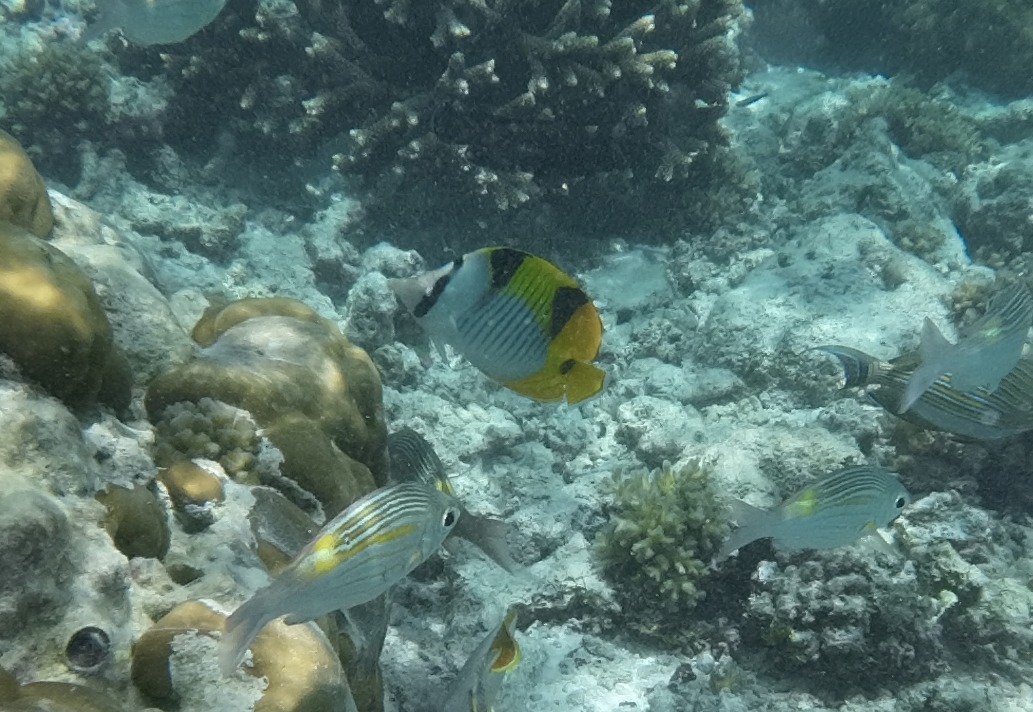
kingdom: Animalia
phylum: Chordata
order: Perciformes
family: Chaetodontidae
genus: Chaetodon
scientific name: Chaetodon falcula
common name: Blackwedged butterflyfish
